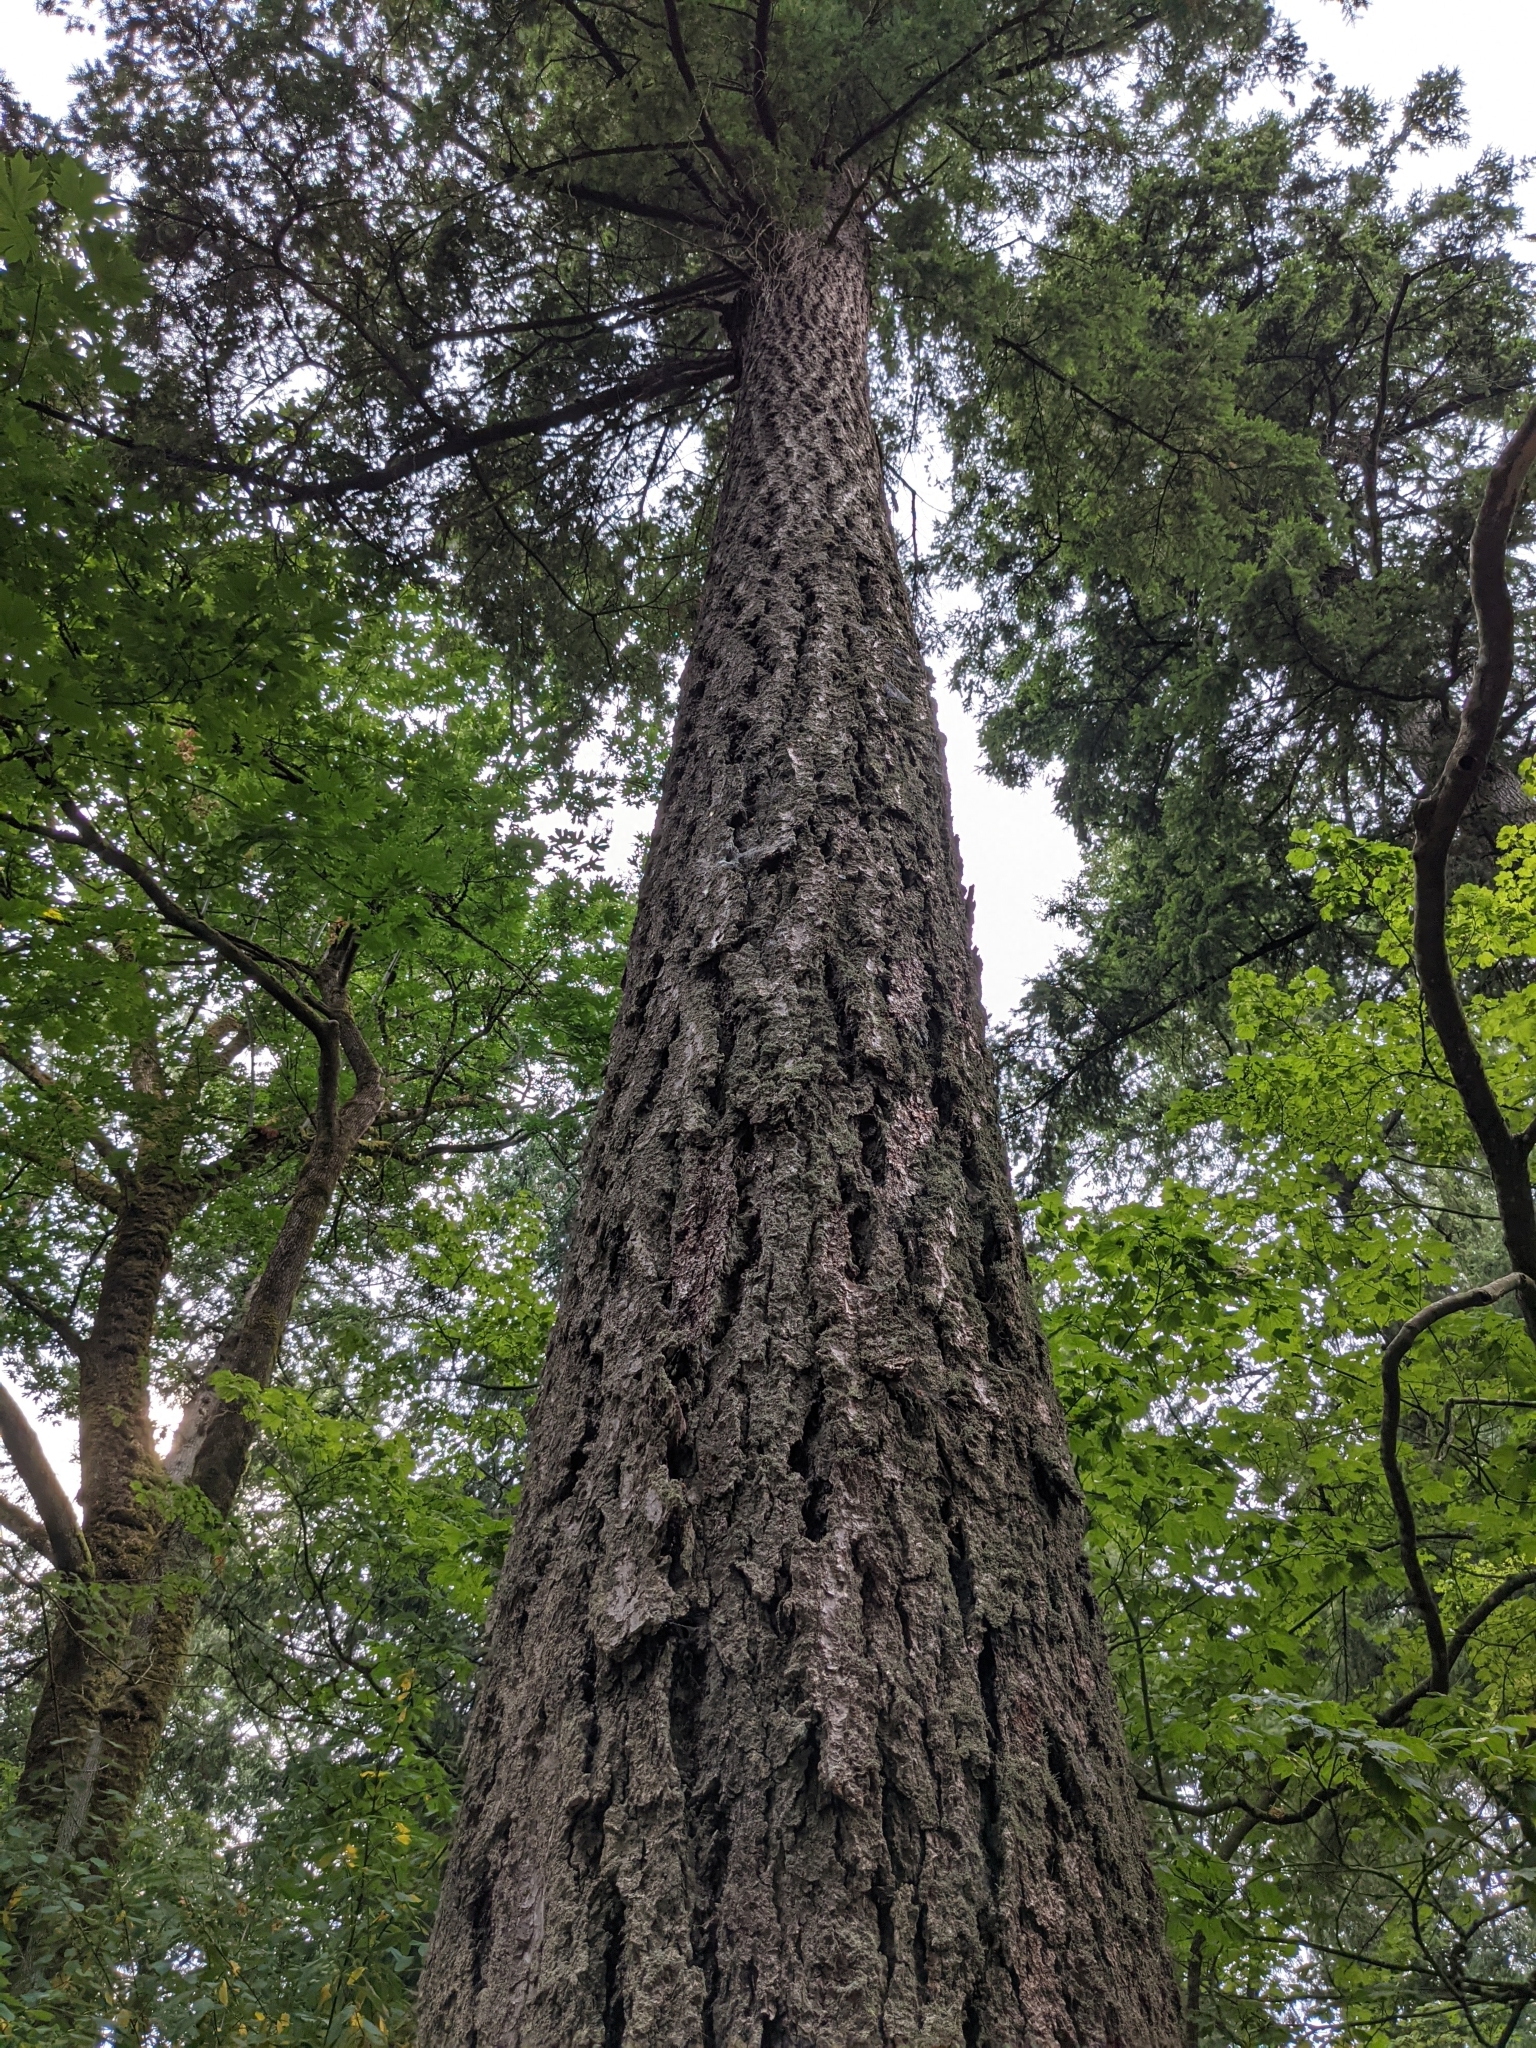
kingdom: Plantae
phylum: Tracheophyta
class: Pinopsida
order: Pinales
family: Pinaceae
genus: Pseudotsuga
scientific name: Pseudotsuga menziesii
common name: Douglas fir
